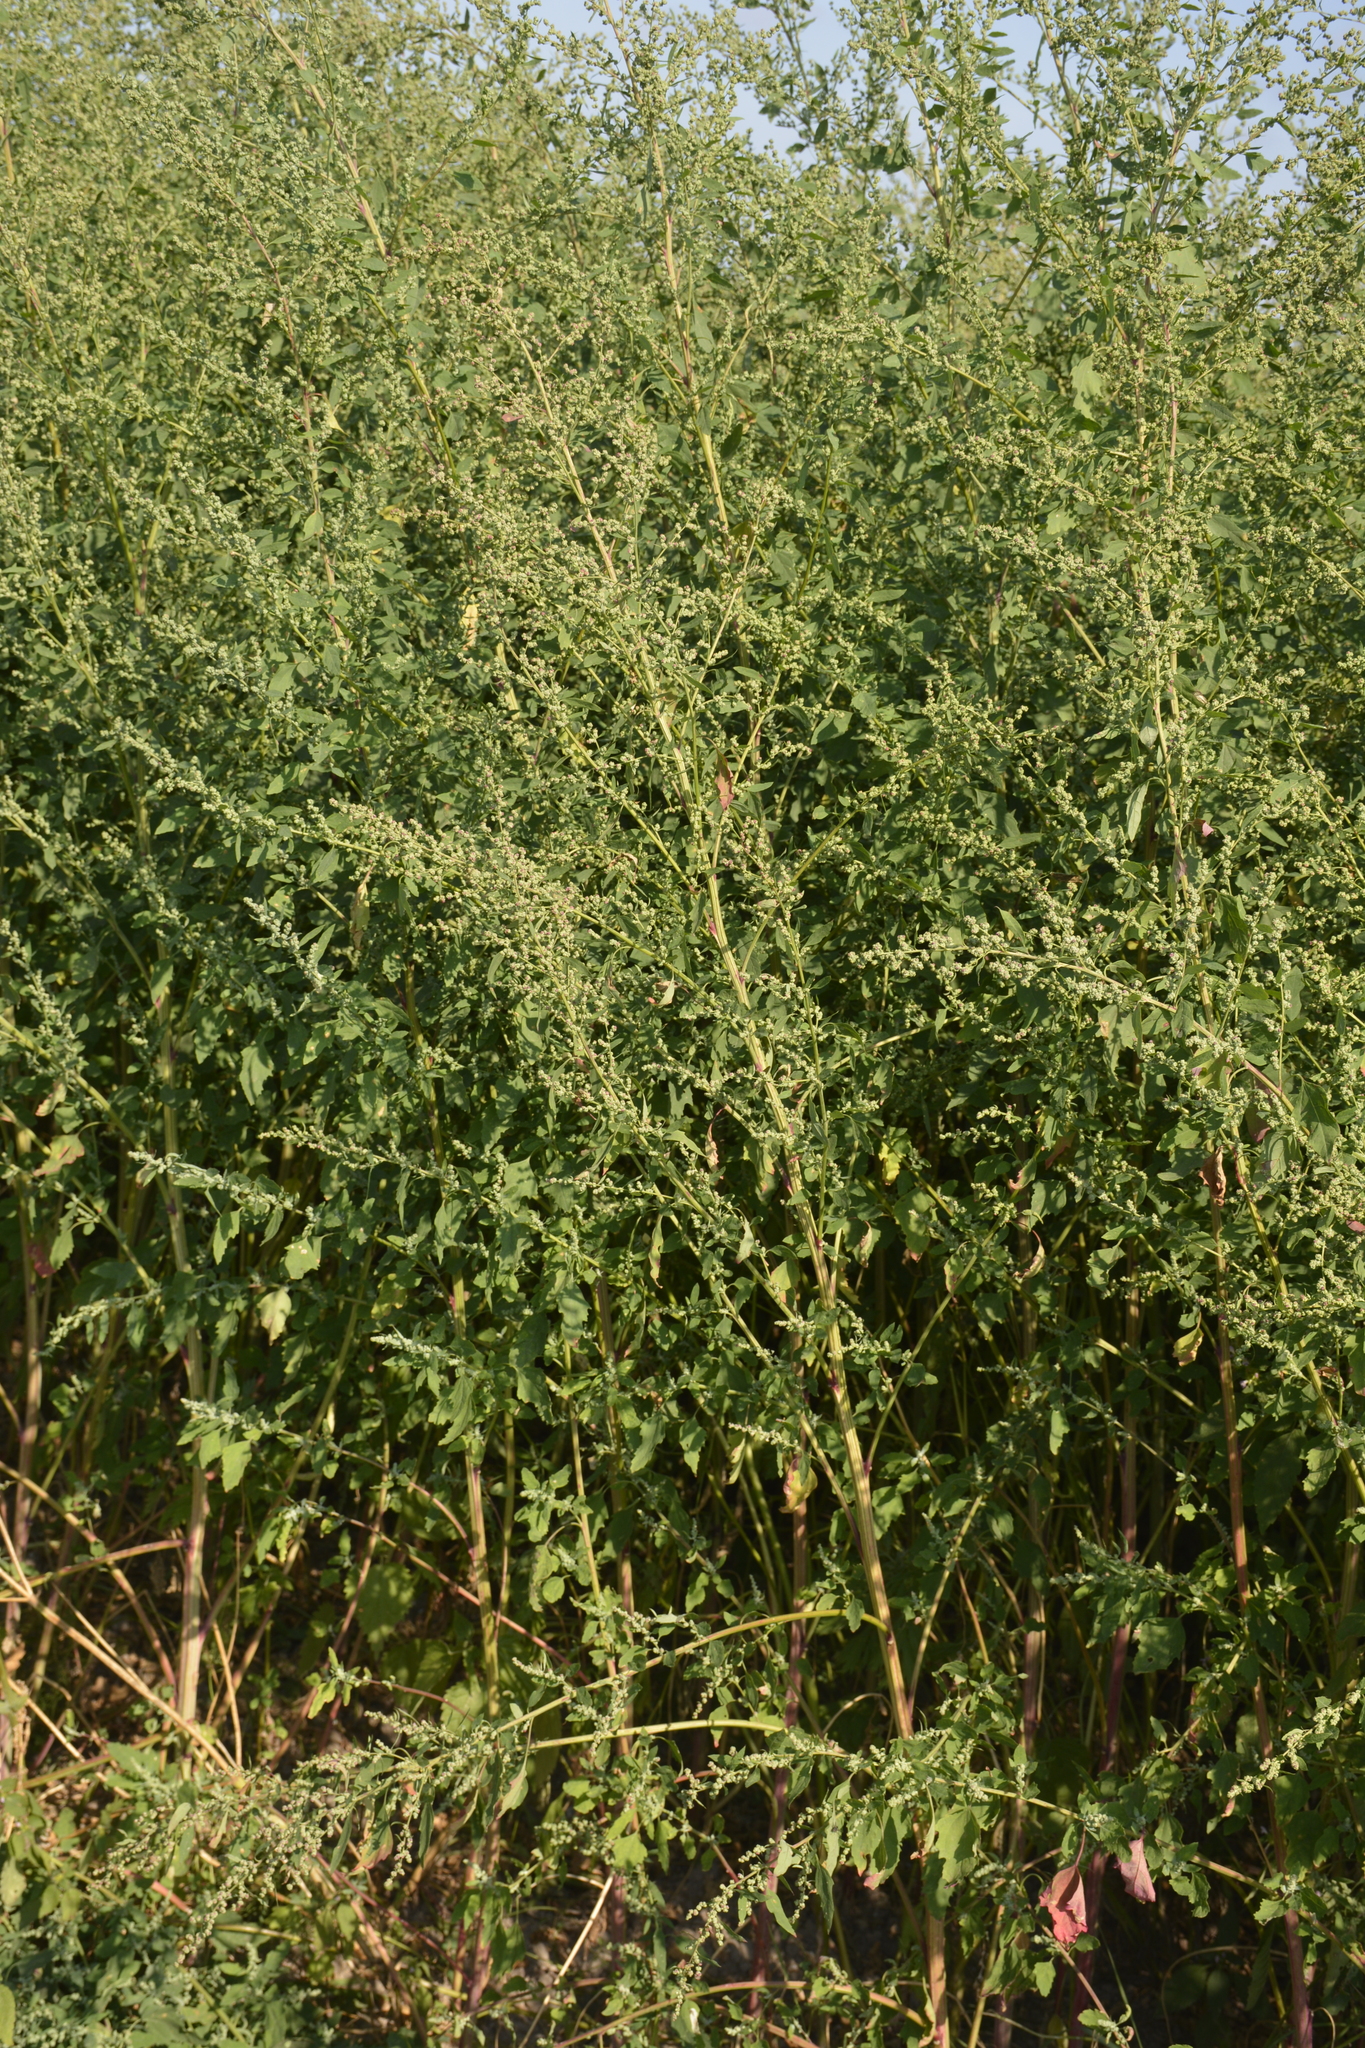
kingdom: Plantae
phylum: Tracheophyta
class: Magnoliopsida
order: Caryophyllales
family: Amaranthaceae
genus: Chenopodium
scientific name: Chenopodium album
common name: Fat-hen
